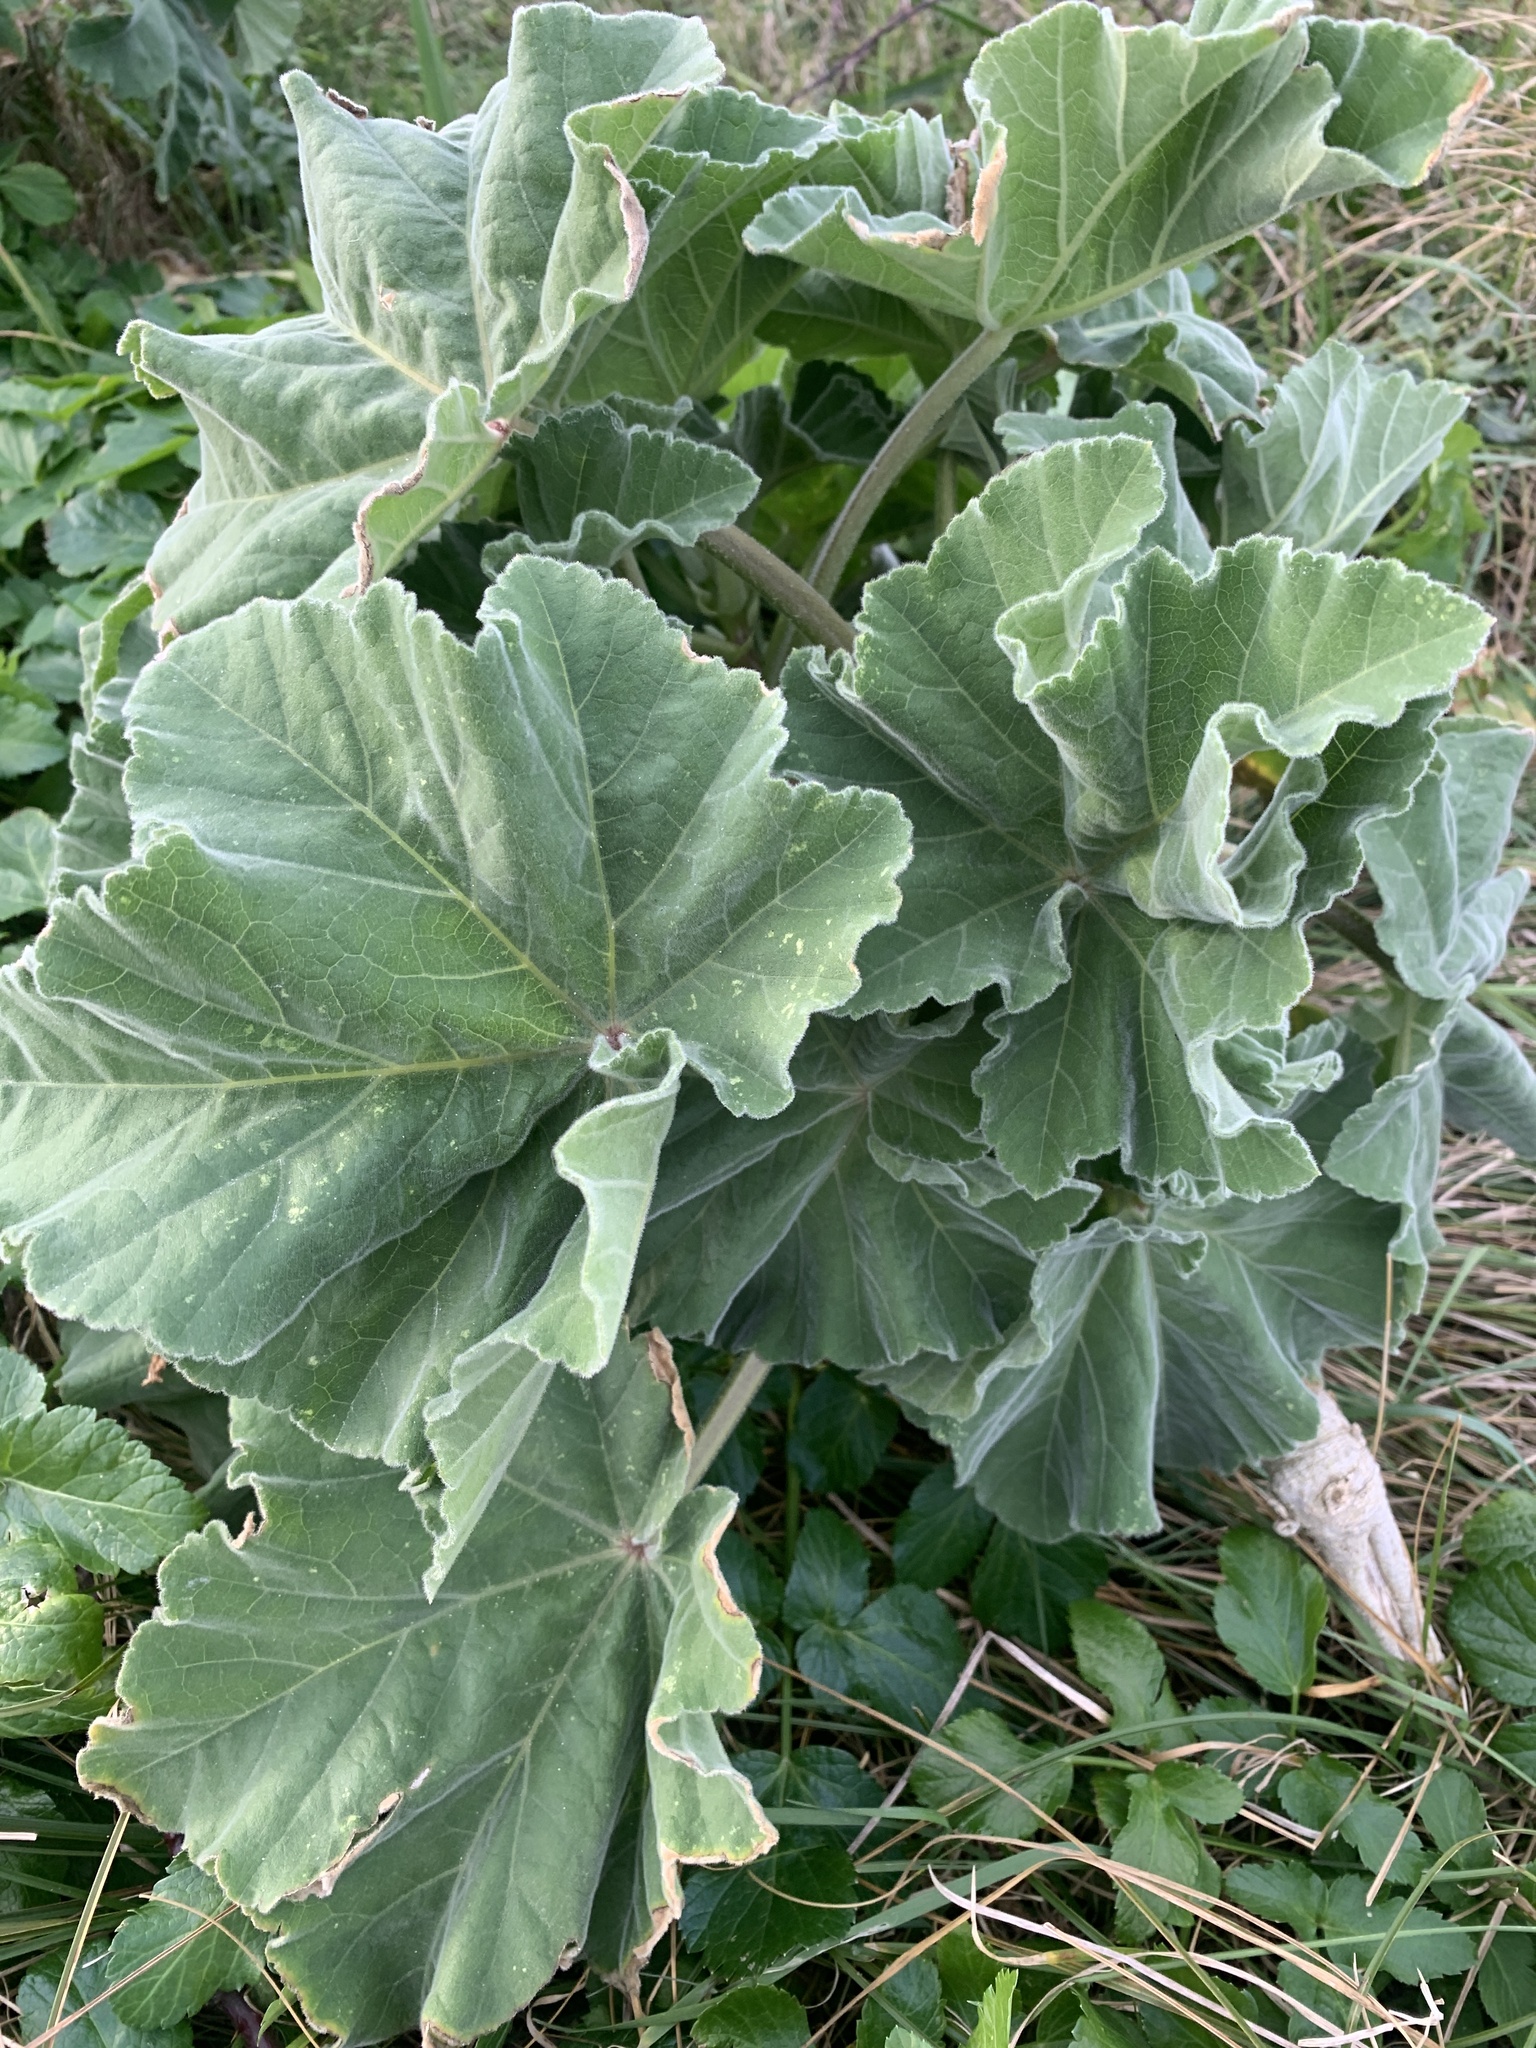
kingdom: Plantae
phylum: Tracheophyta
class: Magnoliopsida
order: Malvales
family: Malvaceae
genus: Malva
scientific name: Malva arborea
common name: Tree mallow
